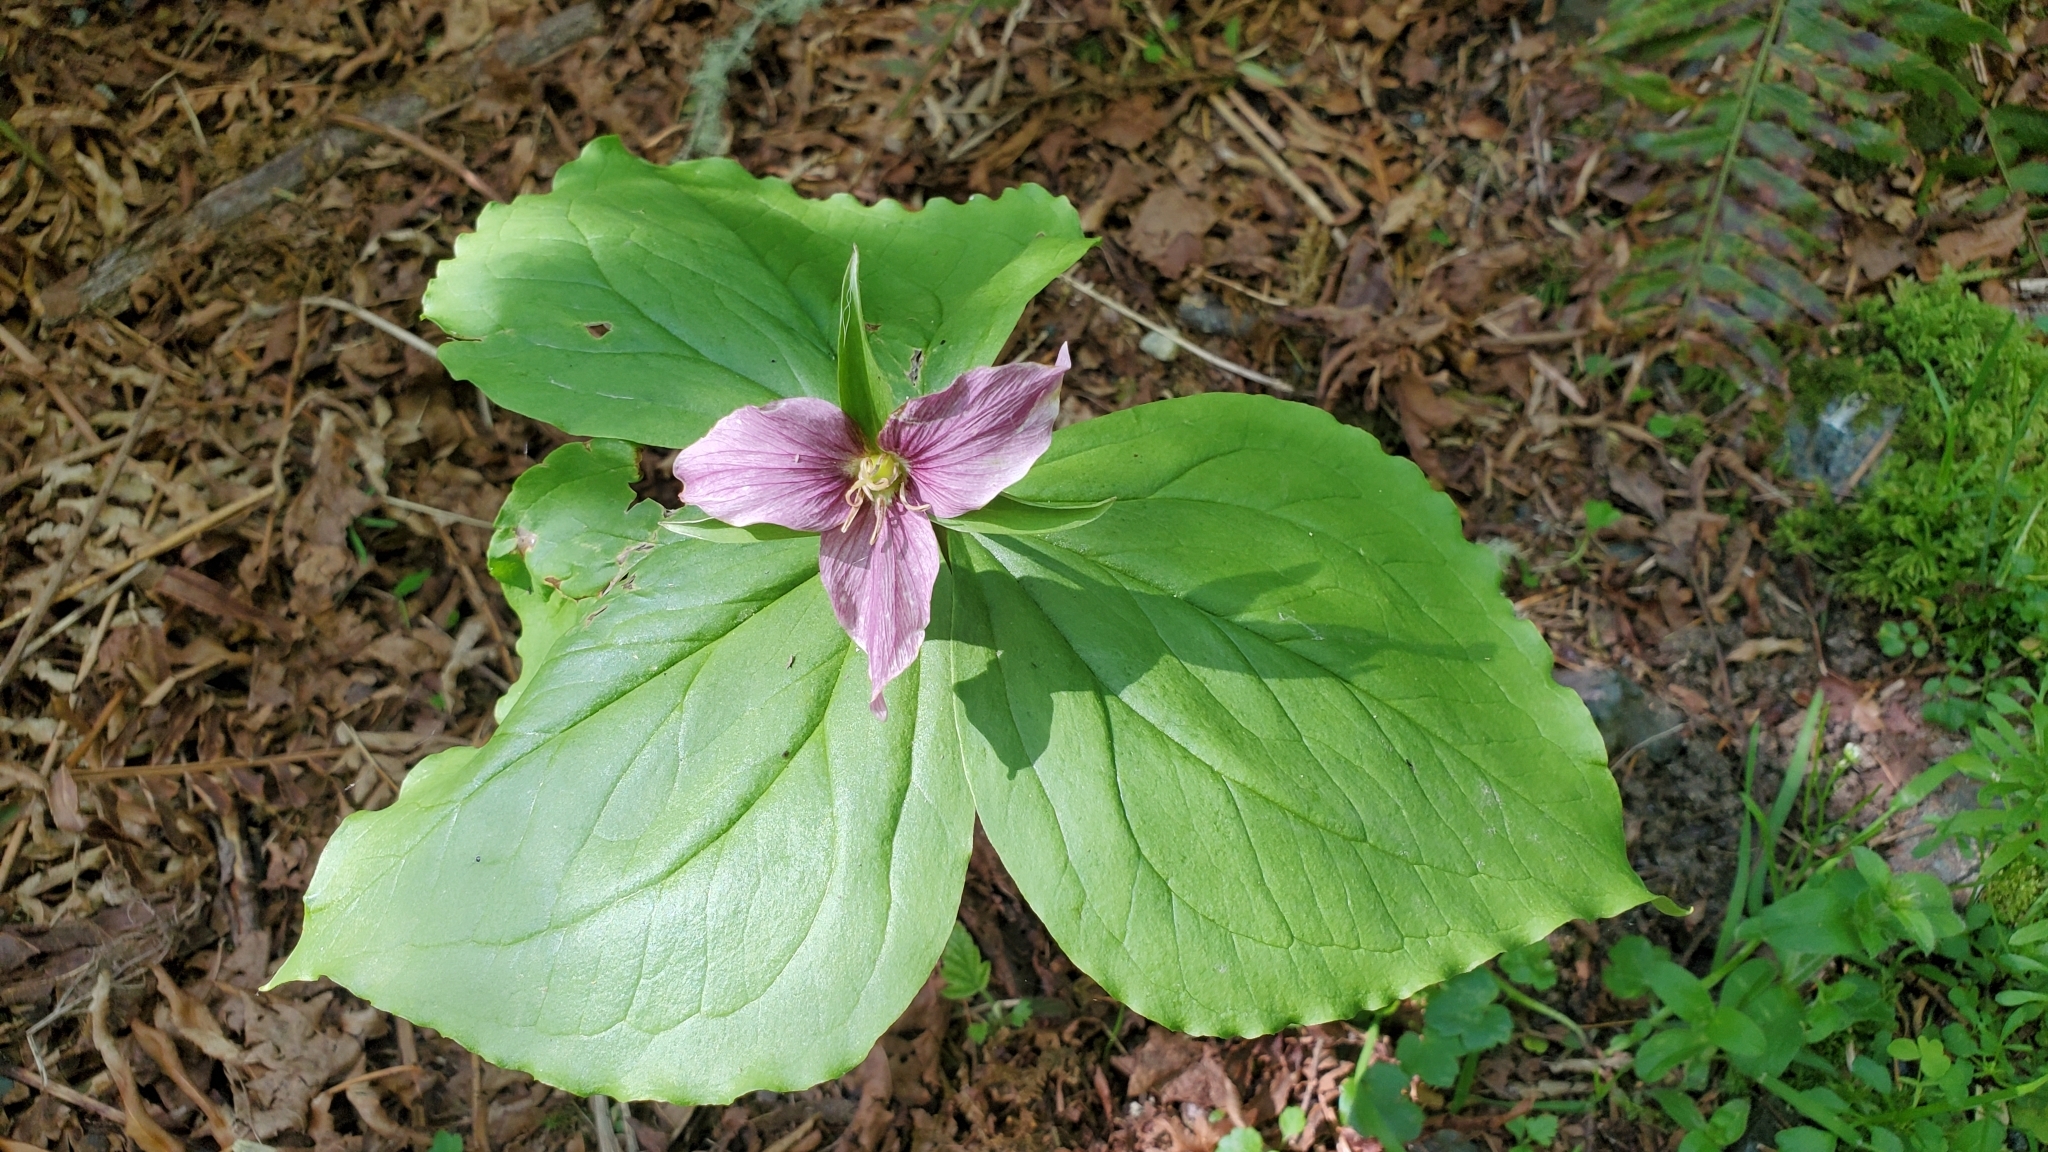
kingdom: Plantae
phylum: Tracheophyta
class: Liliopsida
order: Liliales
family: Melanthiaceae
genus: Trillium
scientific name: Trillium ovatum
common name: Pacific trillium
